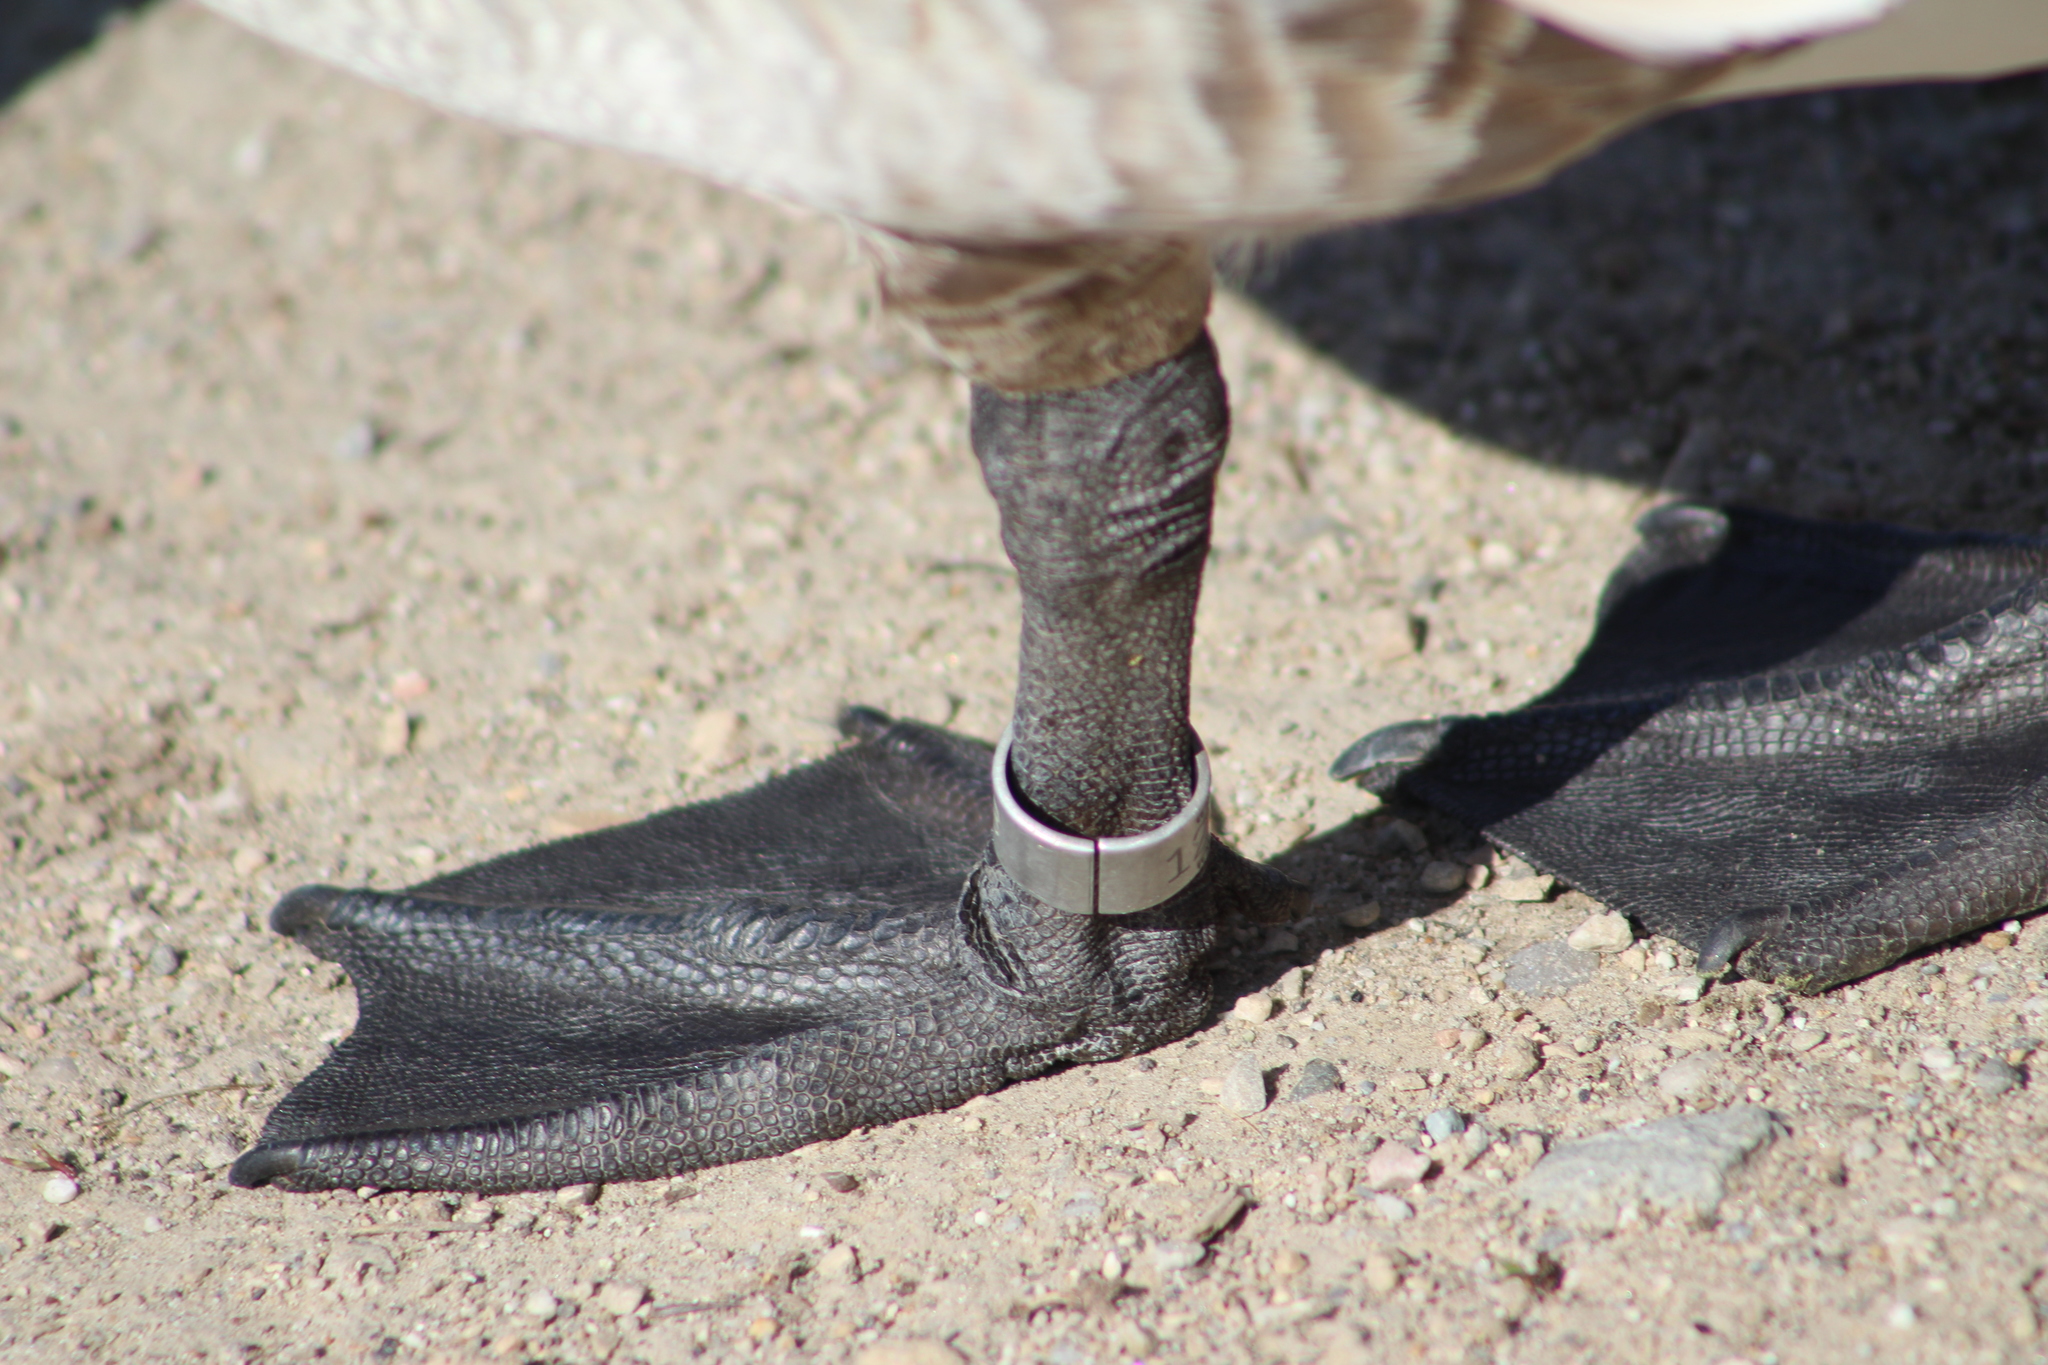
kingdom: Animalia
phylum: Chordata
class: Aves
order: Anseriformes
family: Anatidae
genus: Branta
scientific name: Branta canadensis
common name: Canada goose
